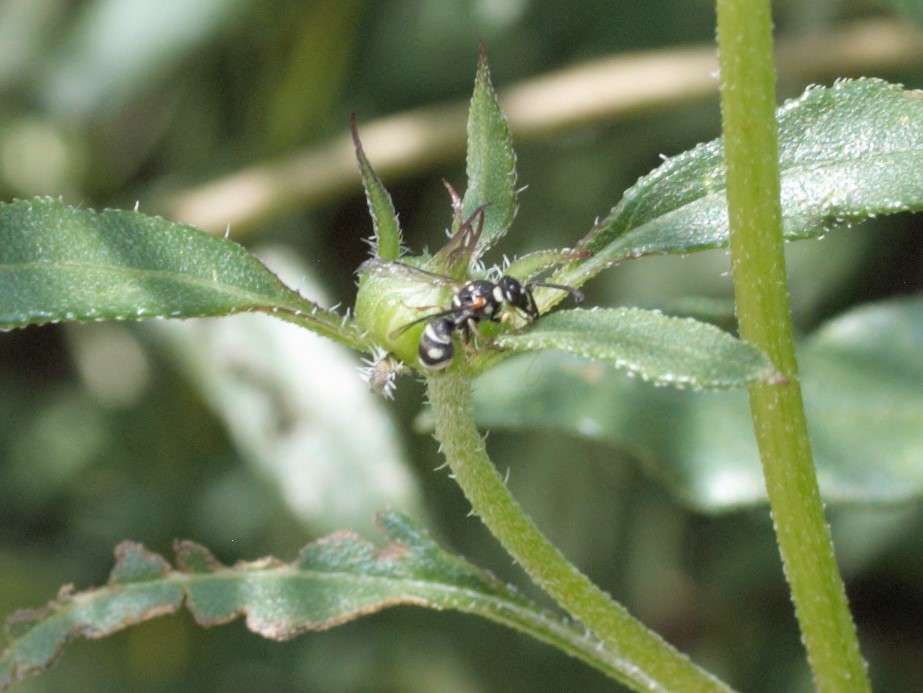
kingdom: Animalia
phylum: Arthropoda
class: Insecta
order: Hymenoptera
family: Eumenidae
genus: Stenodynerus
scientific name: Stenodynerus
